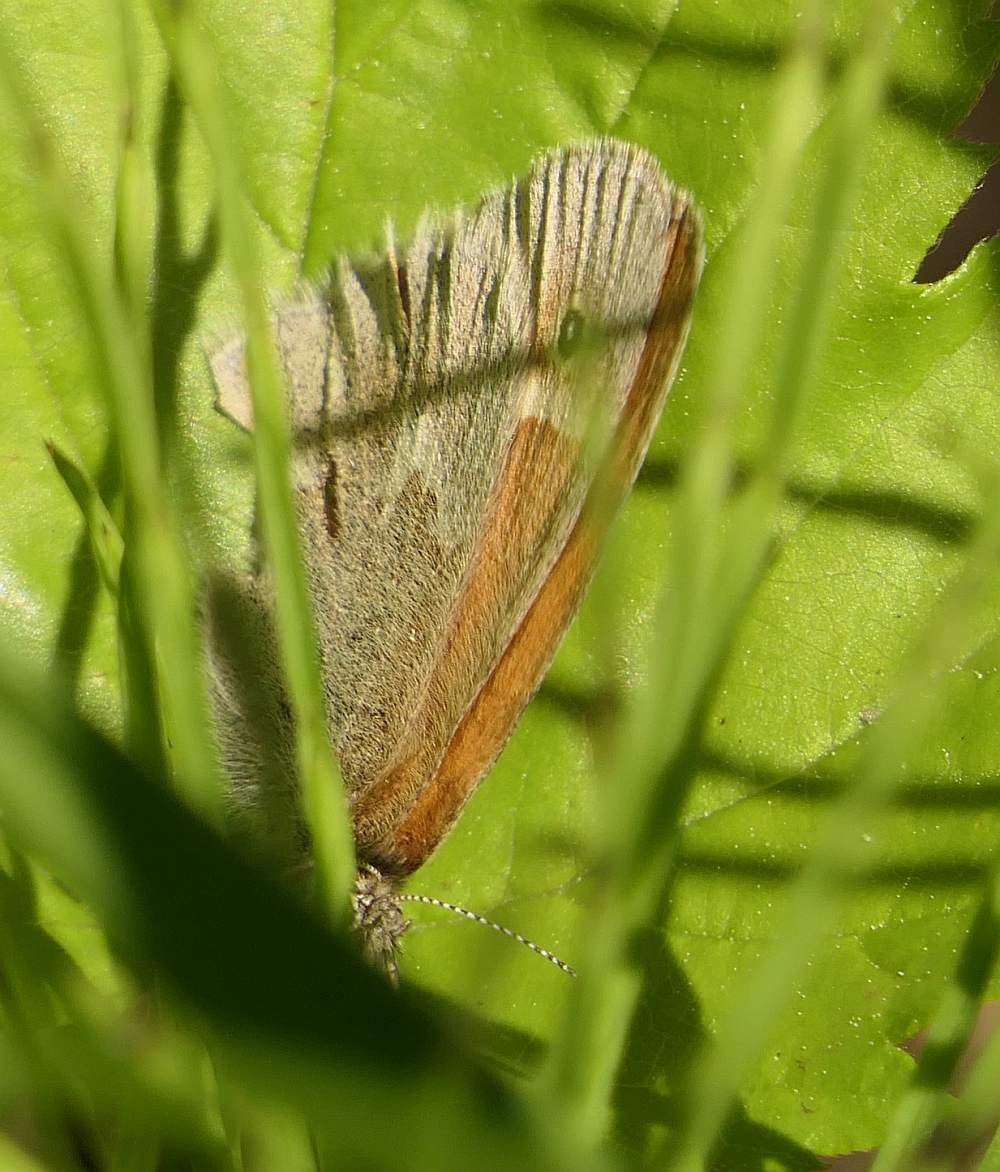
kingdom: Animalia
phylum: Arthropoda
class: Insecta
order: Lepidoptera
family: Nymphalidae
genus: Coenonympha
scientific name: Coenonympha california
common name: Common ringlet
